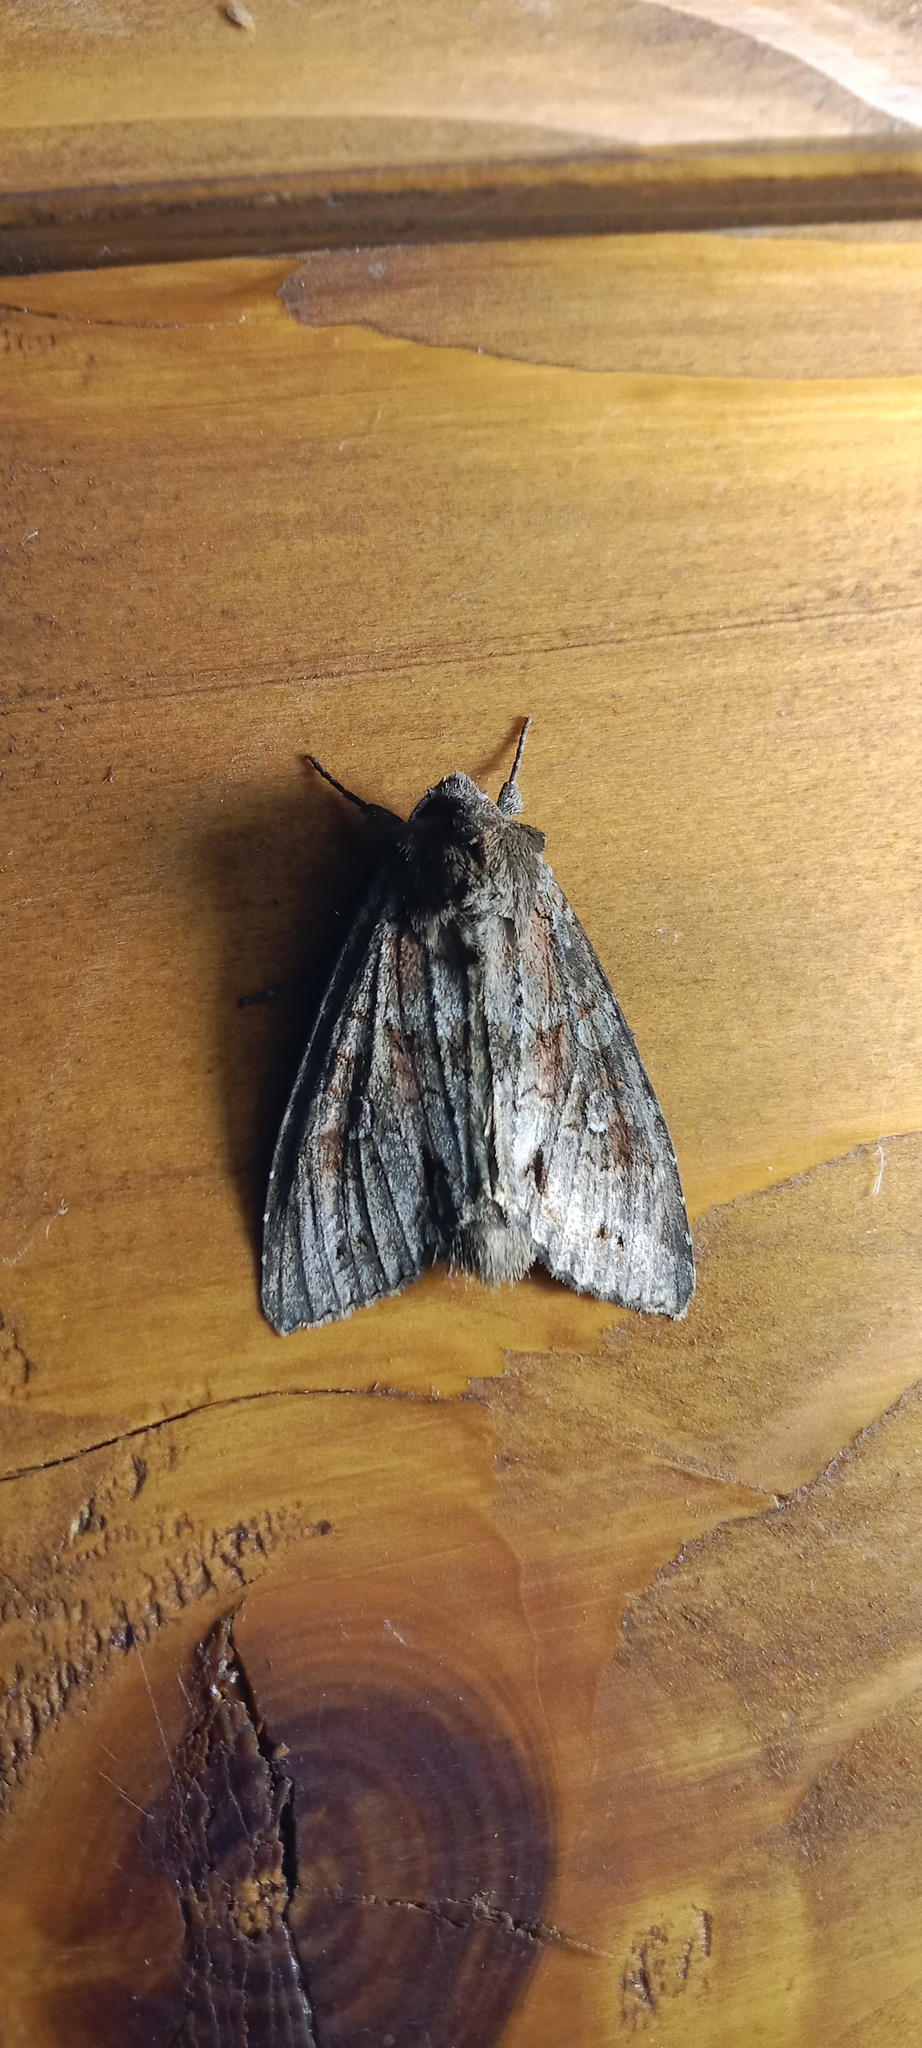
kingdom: Animalia
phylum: Arthropoda
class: Insecta
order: Lepidoptera
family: Noctuidae
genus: Polia
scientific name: Polia bombycina
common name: Pale shining brown
